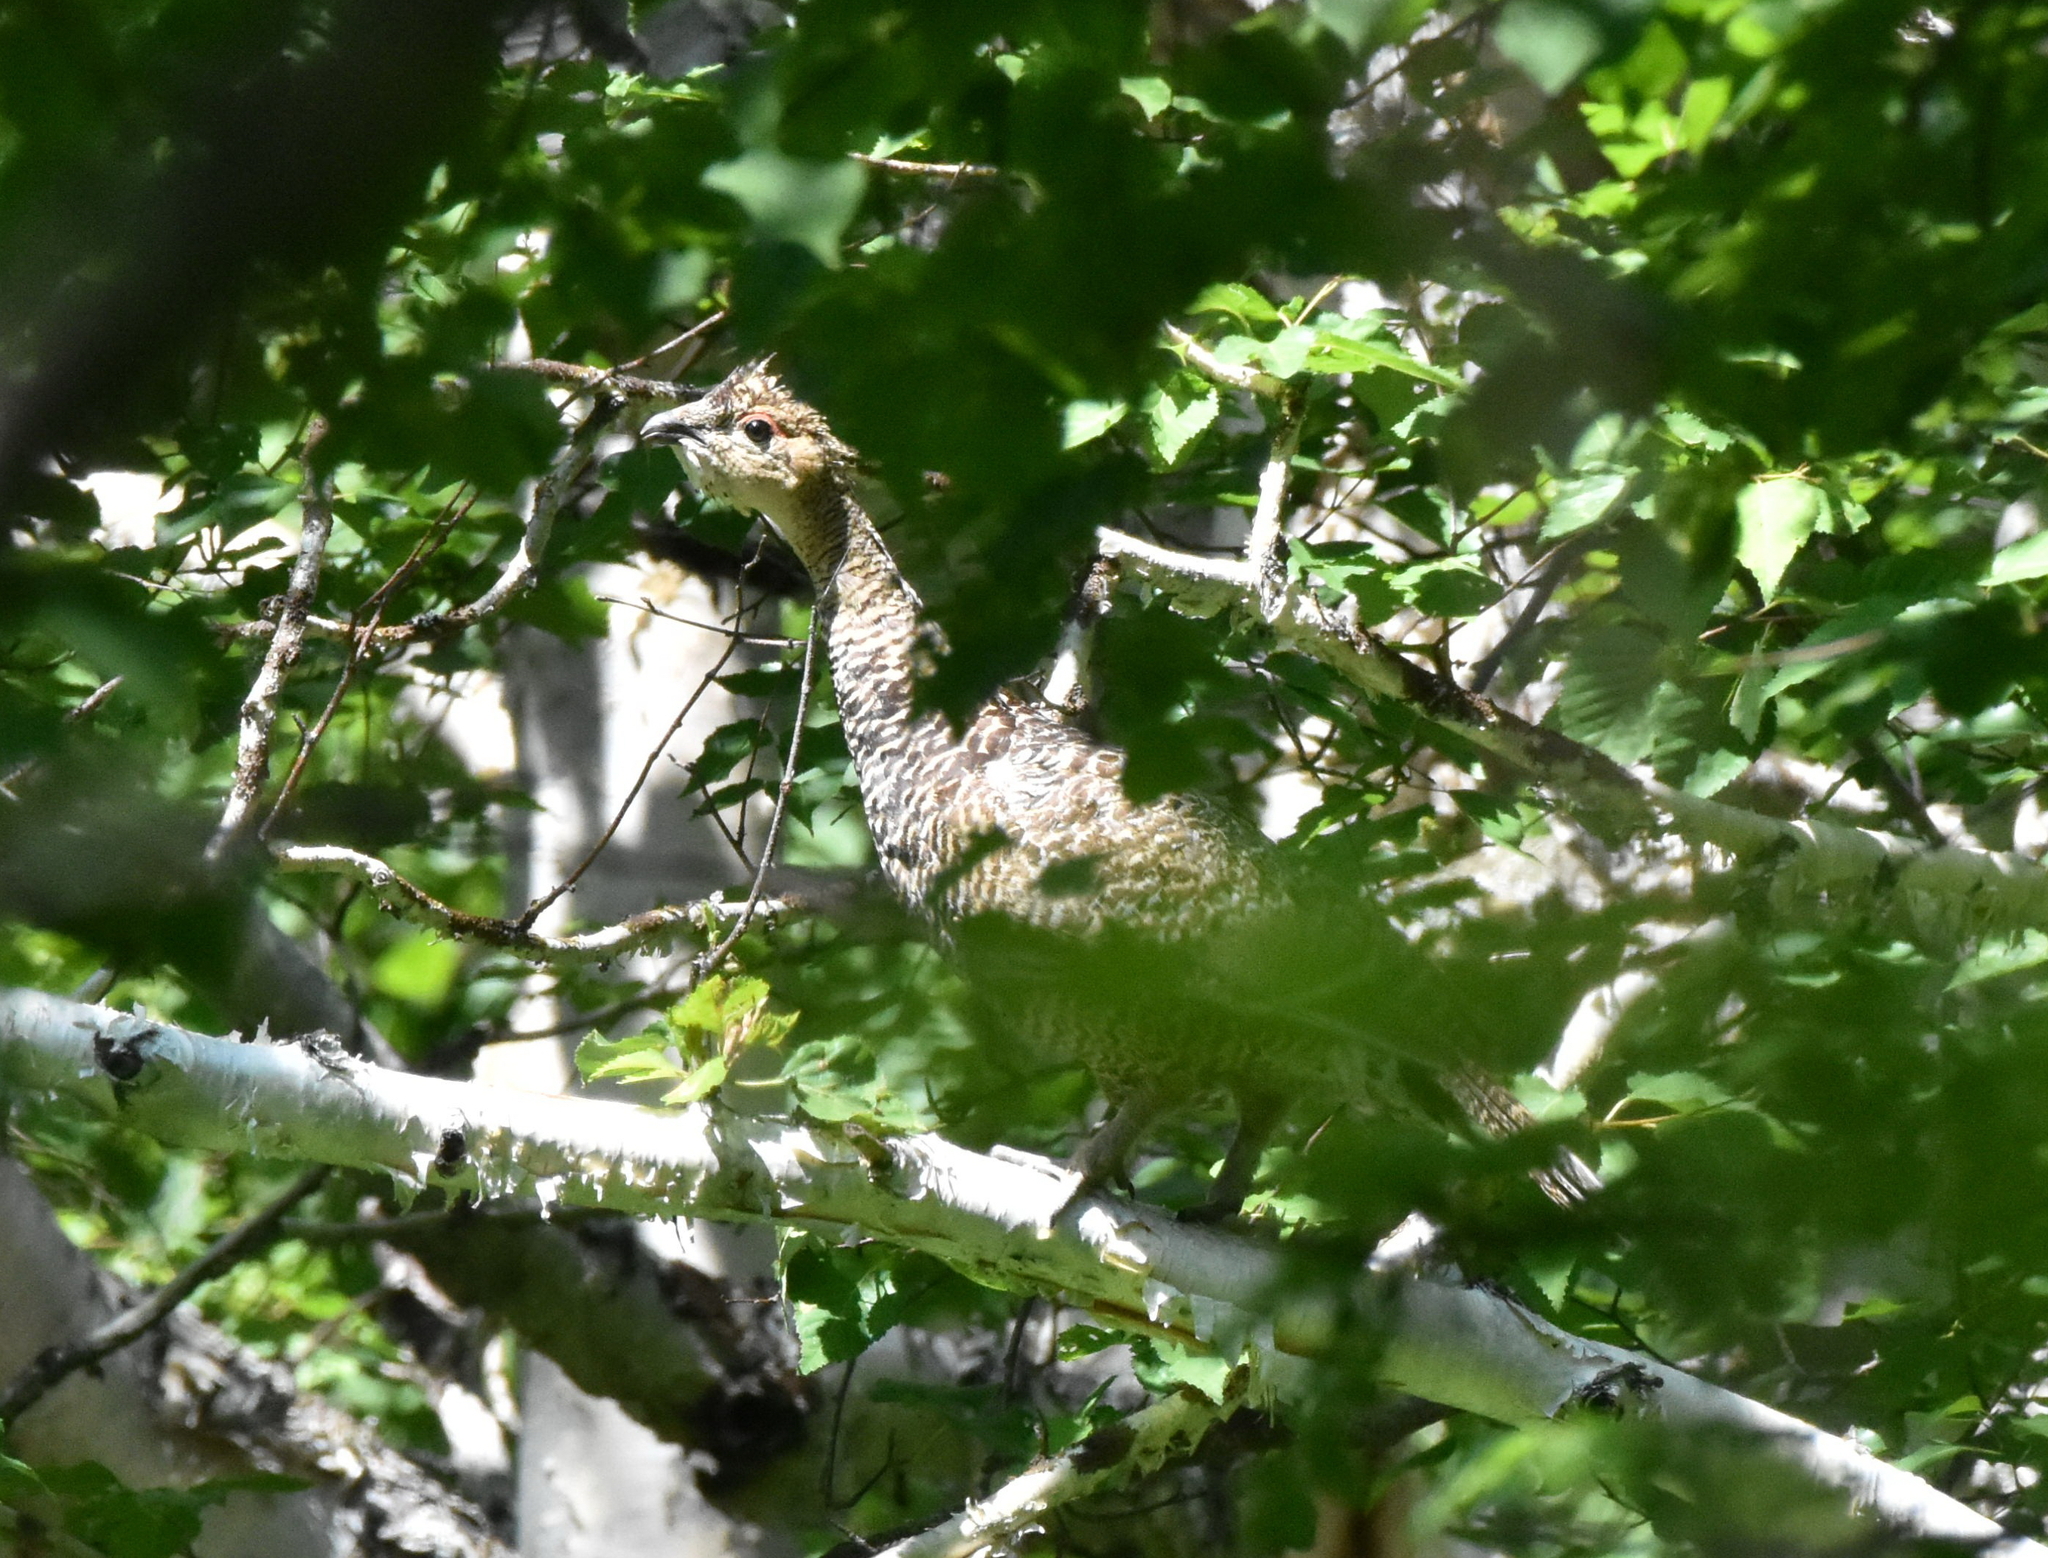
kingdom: Animalia
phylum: Chordata
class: Aves
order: Galliformes
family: Phasianidae
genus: Lyrurus
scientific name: Lyrurus tetrix
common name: Black grouse
